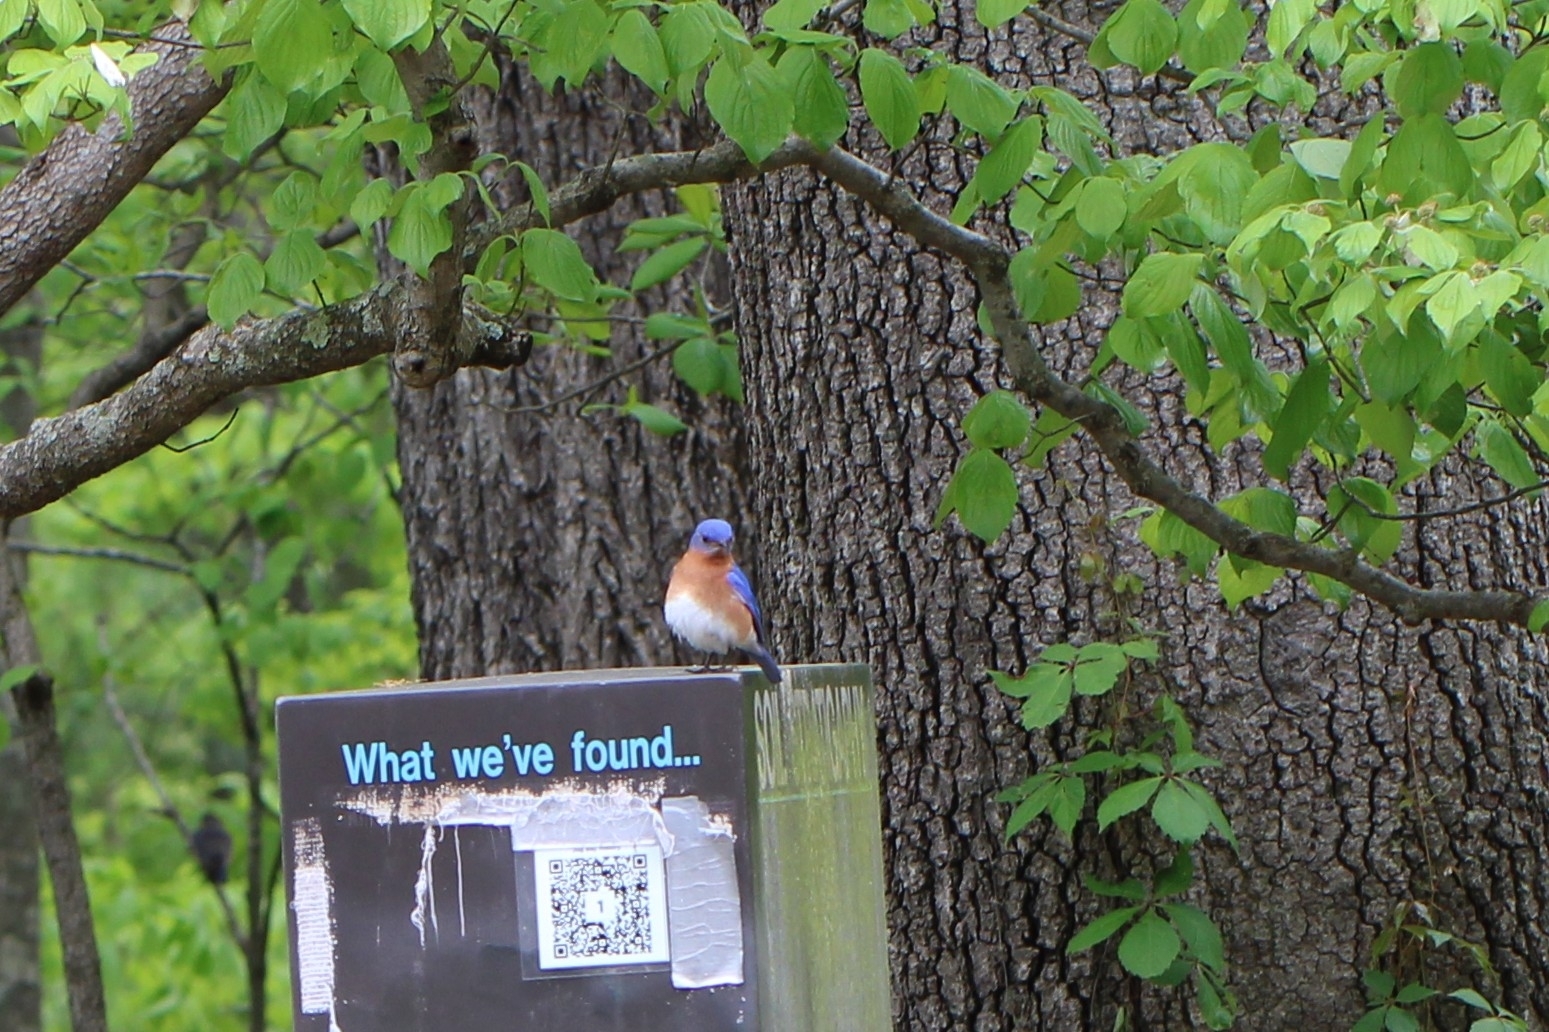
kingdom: Animalia
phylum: Chordata
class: Aves
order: Passeriformes
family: Turdidae
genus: Sialia
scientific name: Sialia sialis
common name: Eastern bluebird
